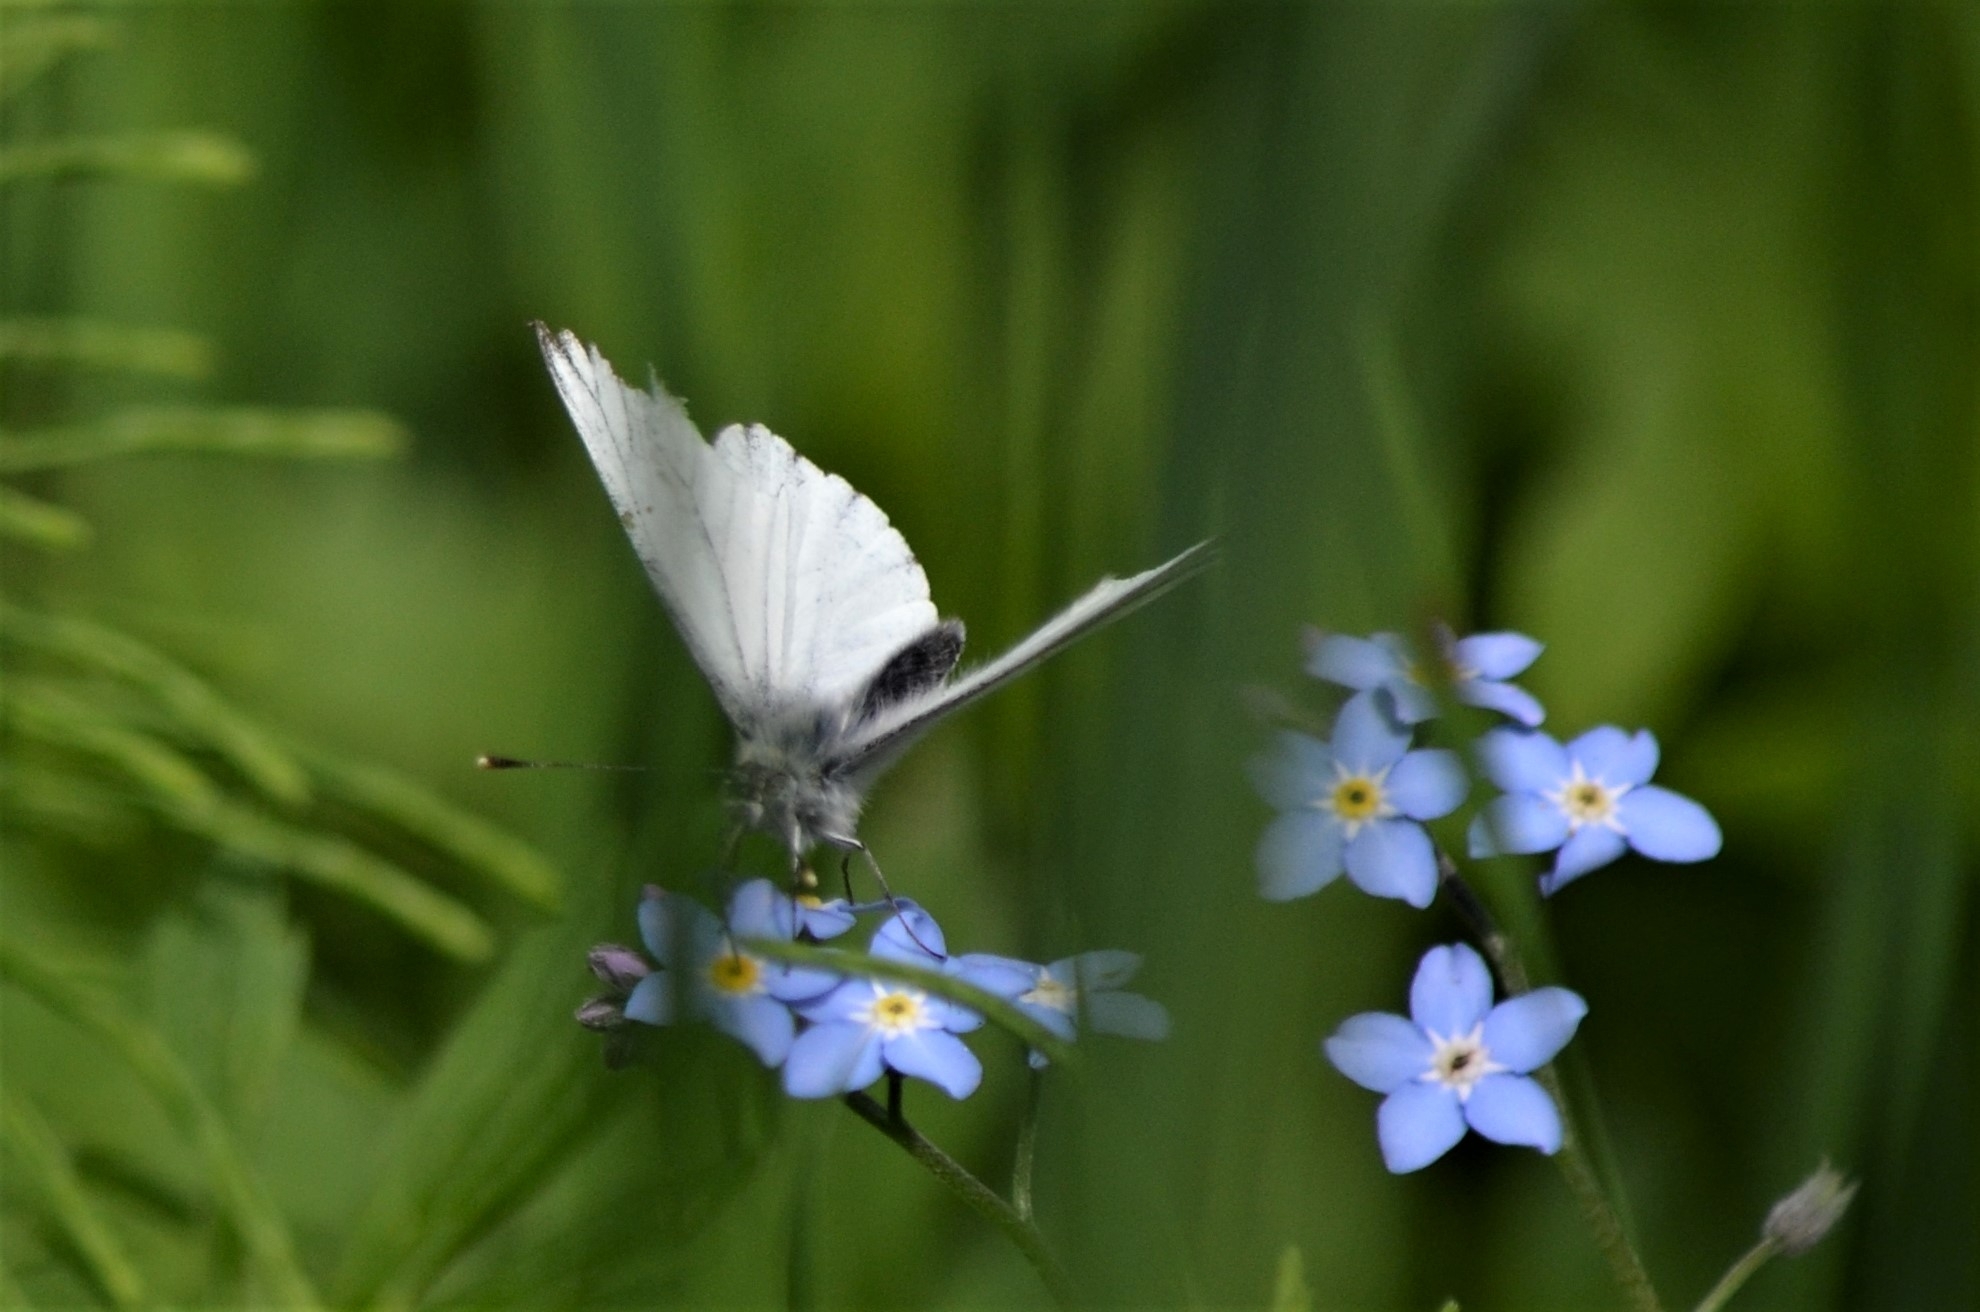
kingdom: Animalia
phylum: Arthropoda
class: Insecta
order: Lepidoptera
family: Pieridae
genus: Pieris
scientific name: Pieris napi
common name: Green-veined white
